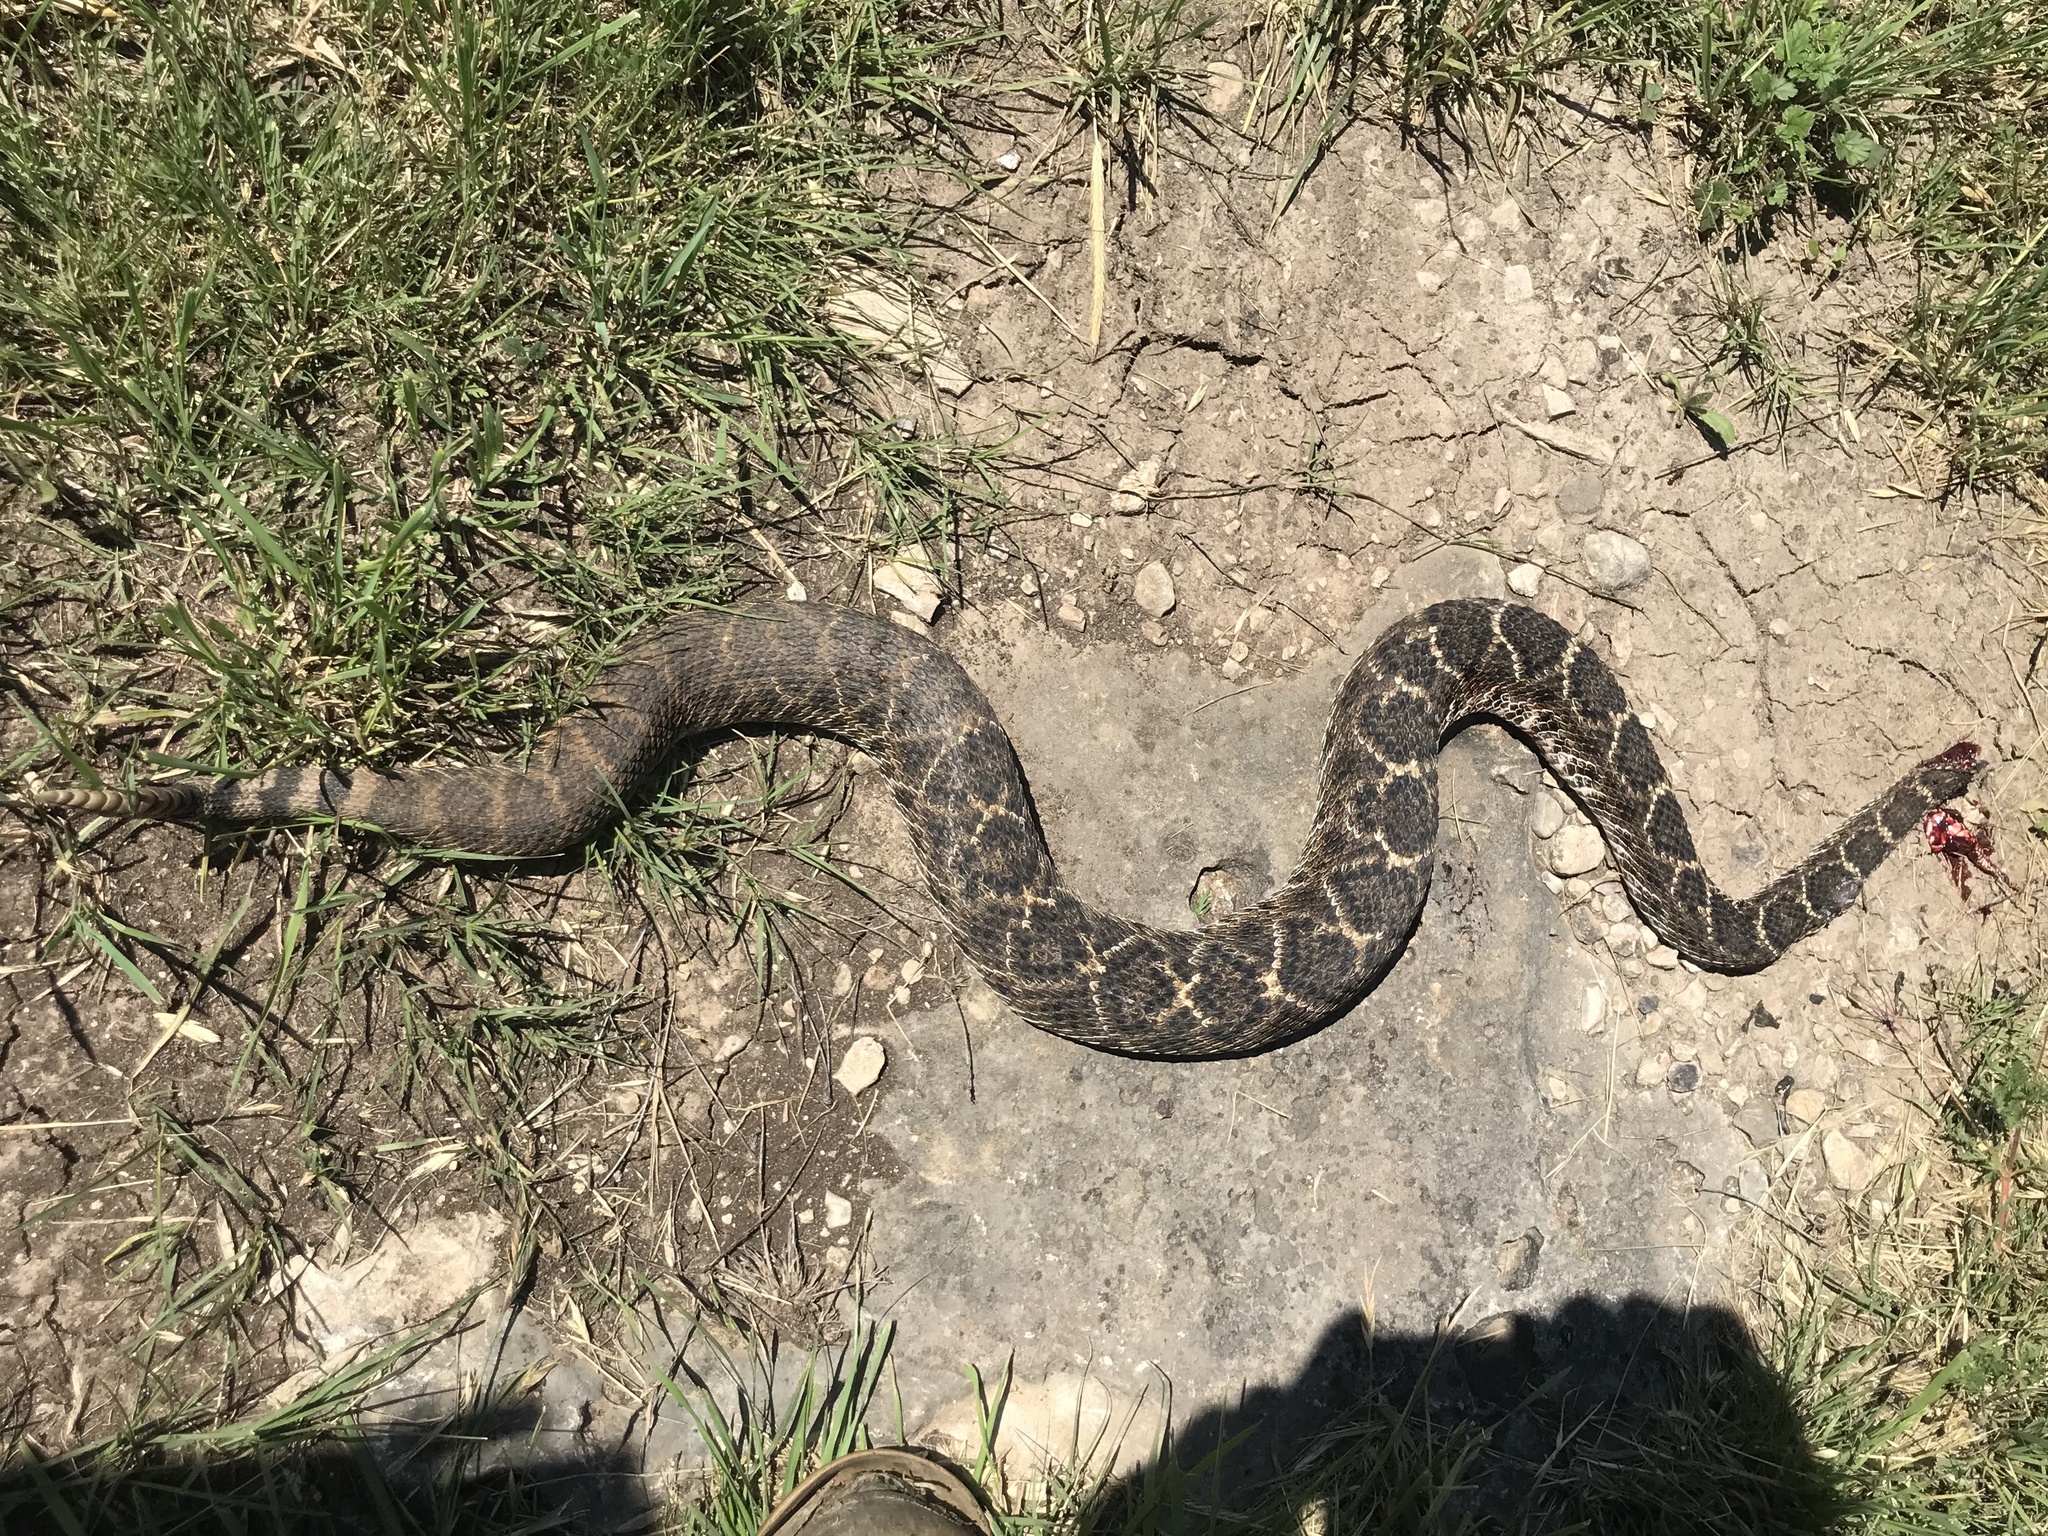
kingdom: Animalia
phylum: Chordata
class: Squamata
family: Viperidae
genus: Crotalus
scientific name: Crotalus atrox
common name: Western diamond-backed rattlesnake
